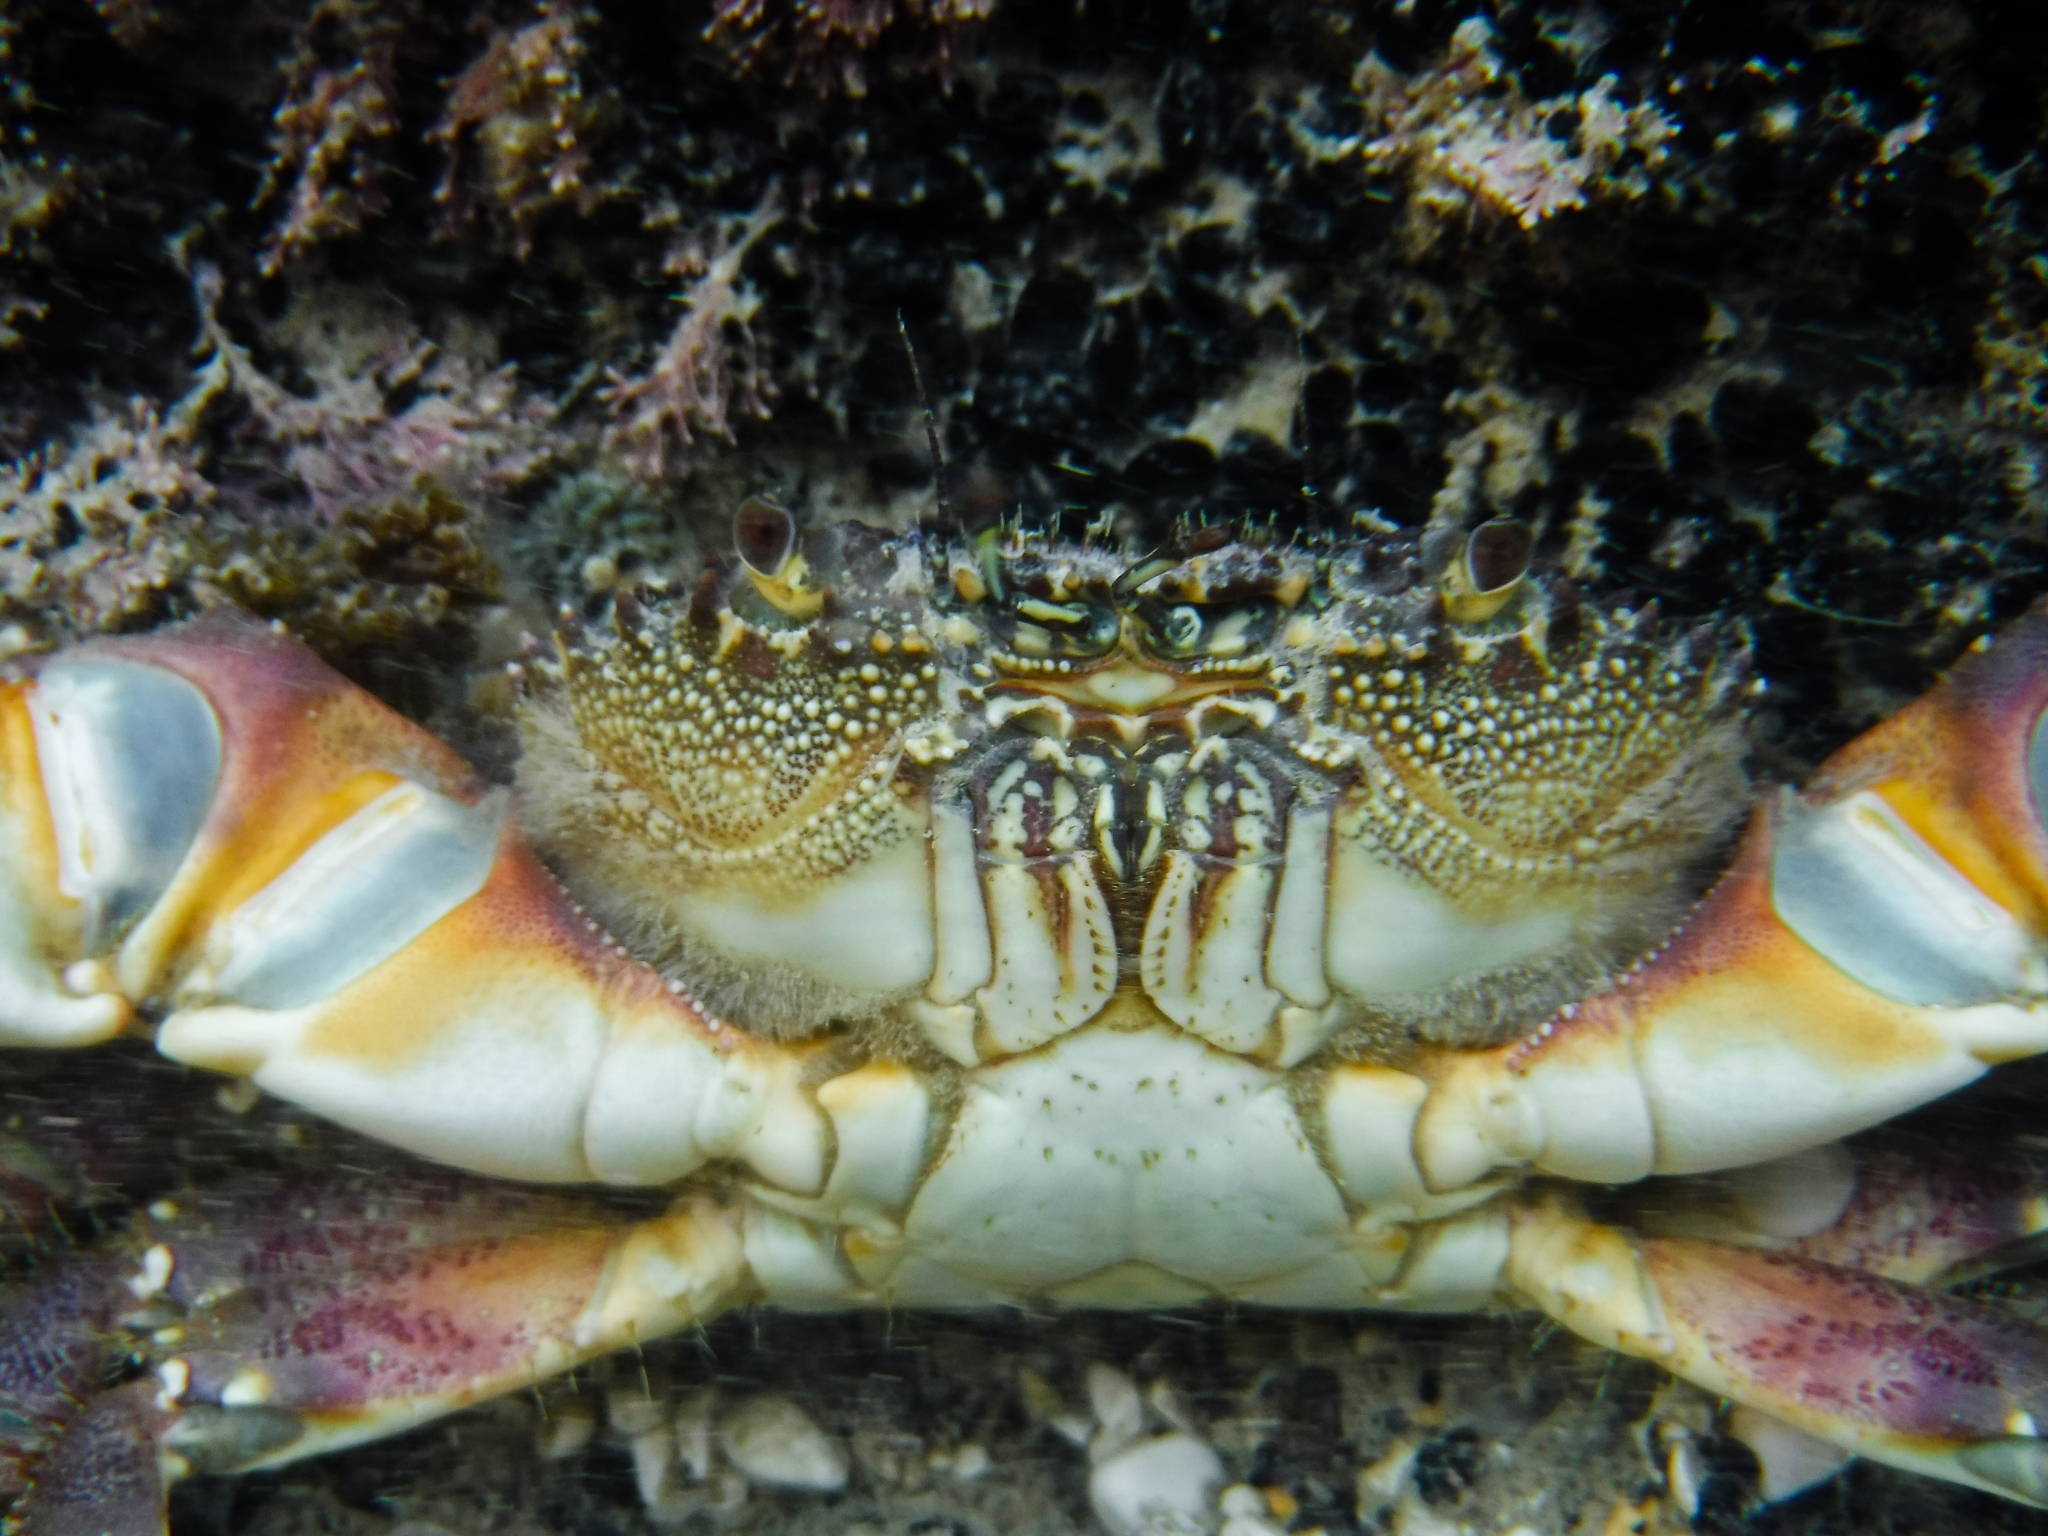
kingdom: Animalia
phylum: Arthropoda
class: Malacostraca
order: Decapoda
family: Eriphiidae
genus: Eriphia
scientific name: Eriphia verrucosa
